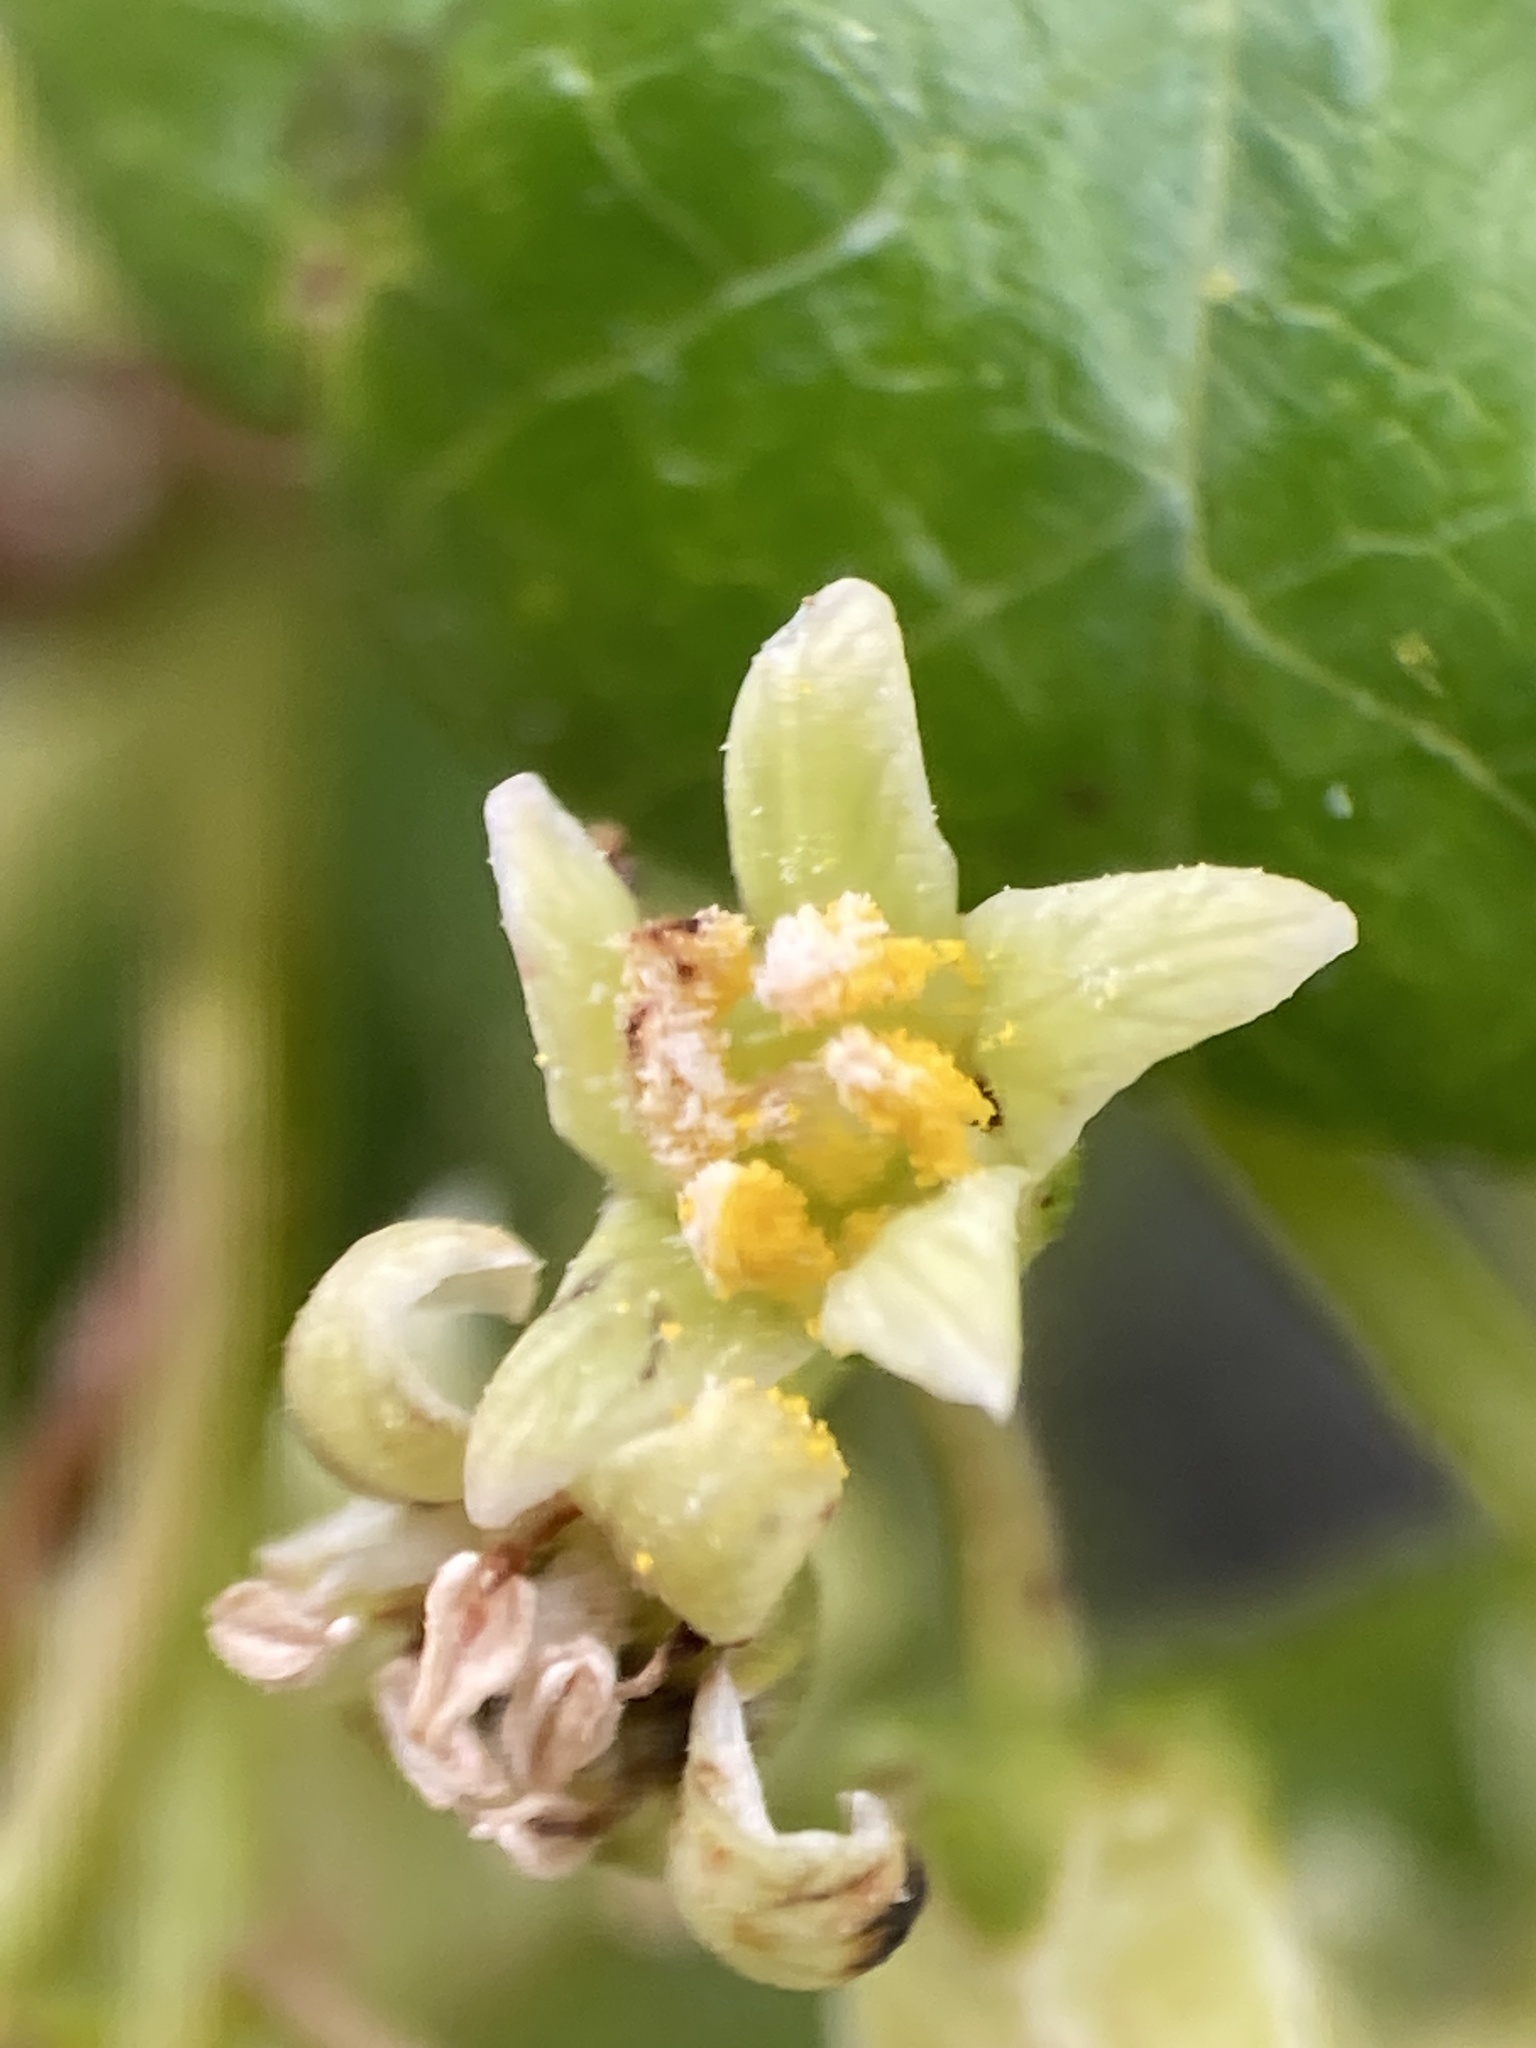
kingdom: Plantae
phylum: Tracheophyta
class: Magnoliopsida
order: Sapindales
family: Anacardiaceae
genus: Toxicodendron
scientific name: Toxicodendron diversilobum
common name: Pacific poison-oak
